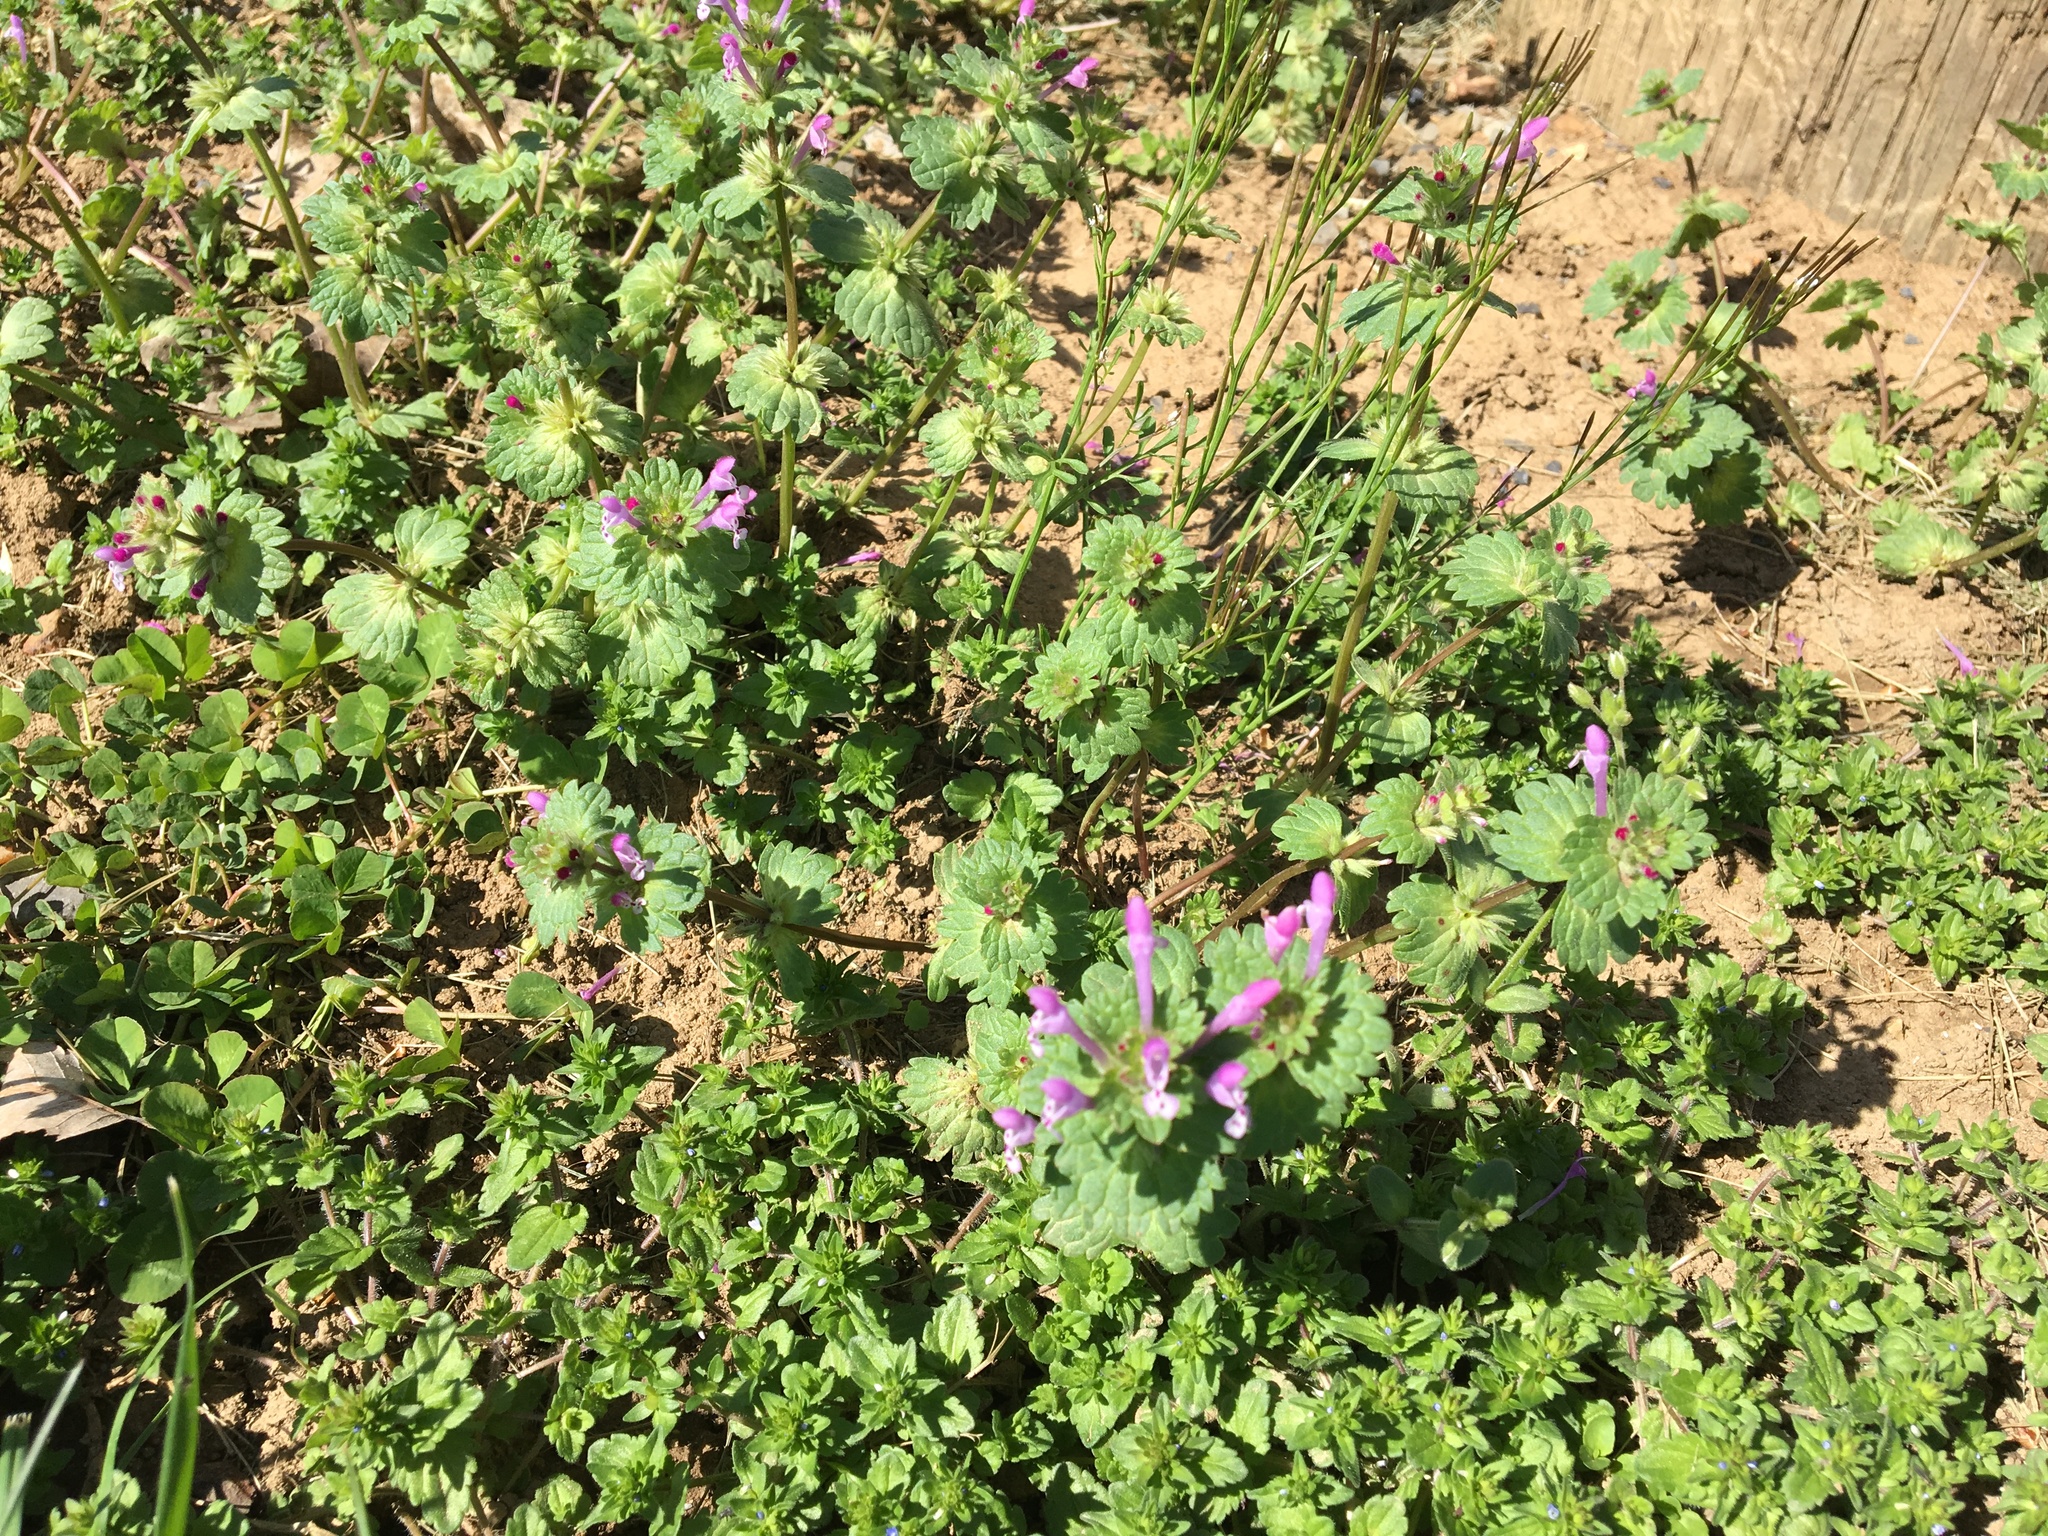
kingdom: Plantae
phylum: Tracheophyta
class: Magnoliopsida
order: Lamiales
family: Lamiaceae
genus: Lamium
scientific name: Lamium amplexicaule
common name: Henbit dead-nettle
